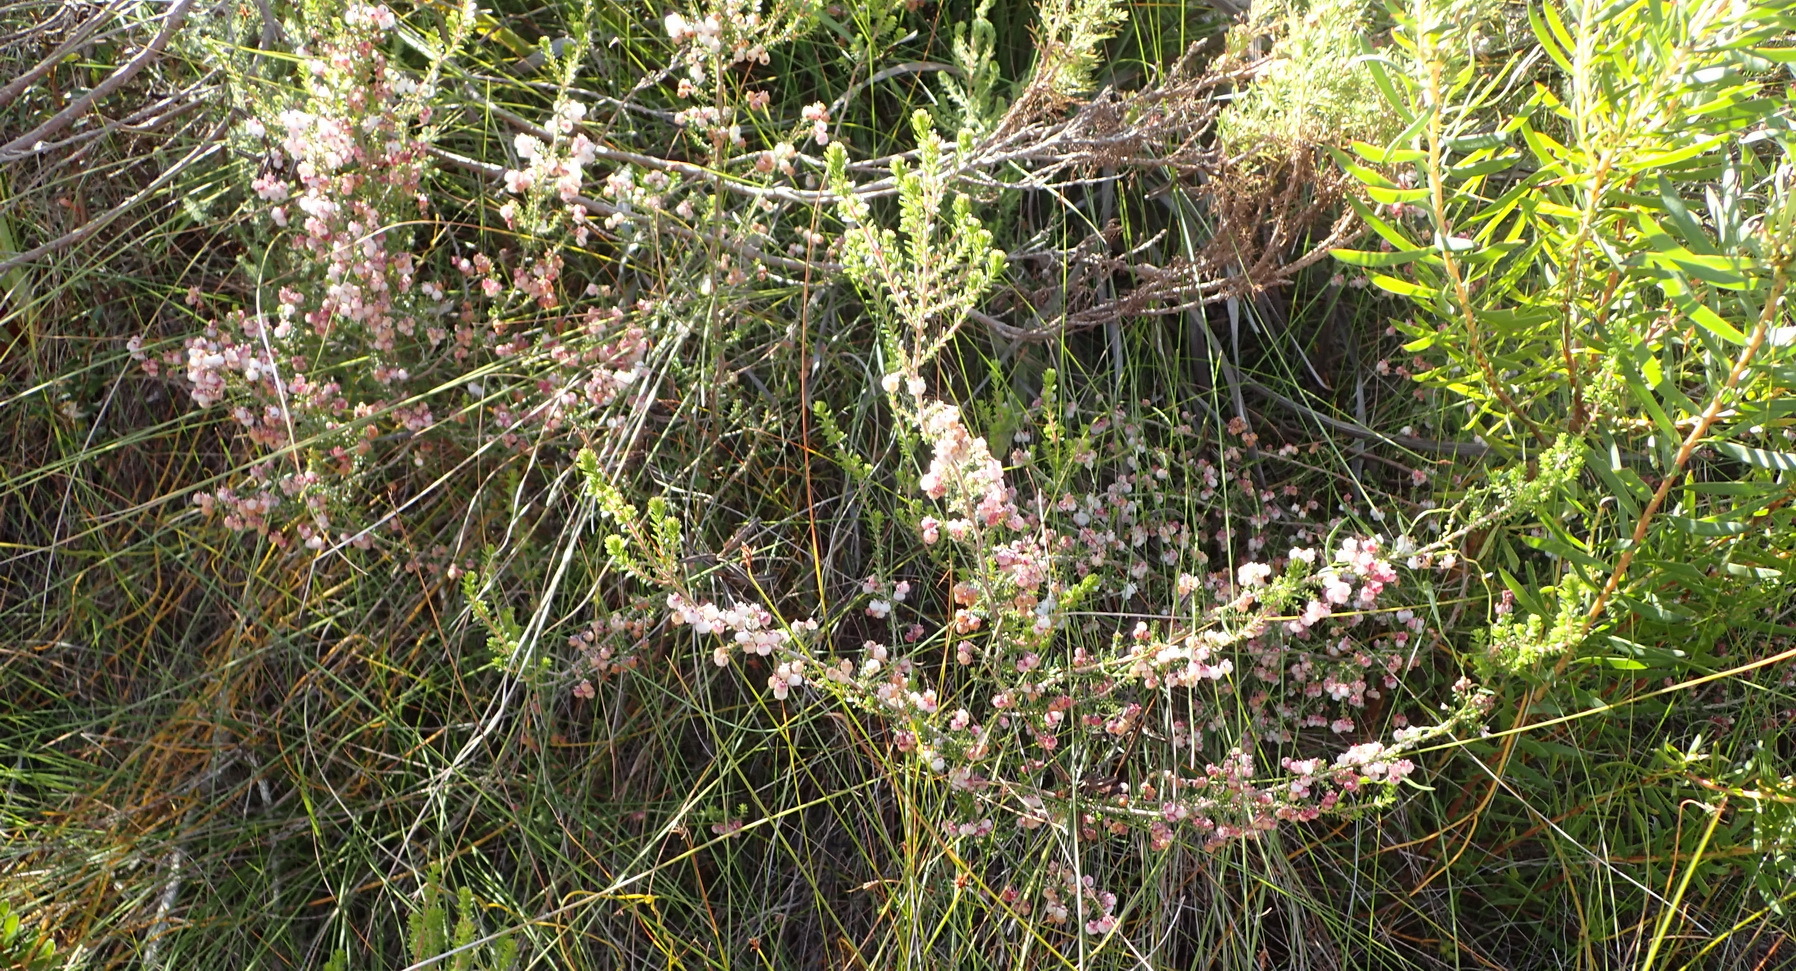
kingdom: Plantae
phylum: Tracheophyta
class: Magnoliopsida
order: Ericales
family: Ericaceae
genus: Erica
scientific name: Erica formosa
